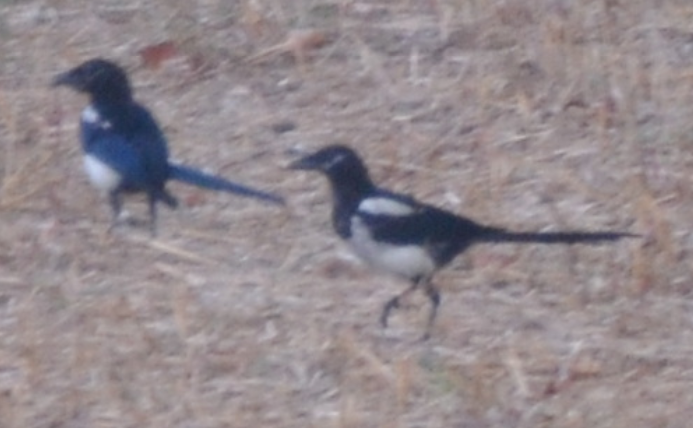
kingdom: Animalia
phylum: Chordata
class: Aves
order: Passeriformes
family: Corvidae
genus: Pica
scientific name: Pica pica
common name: Eurasian magpie
